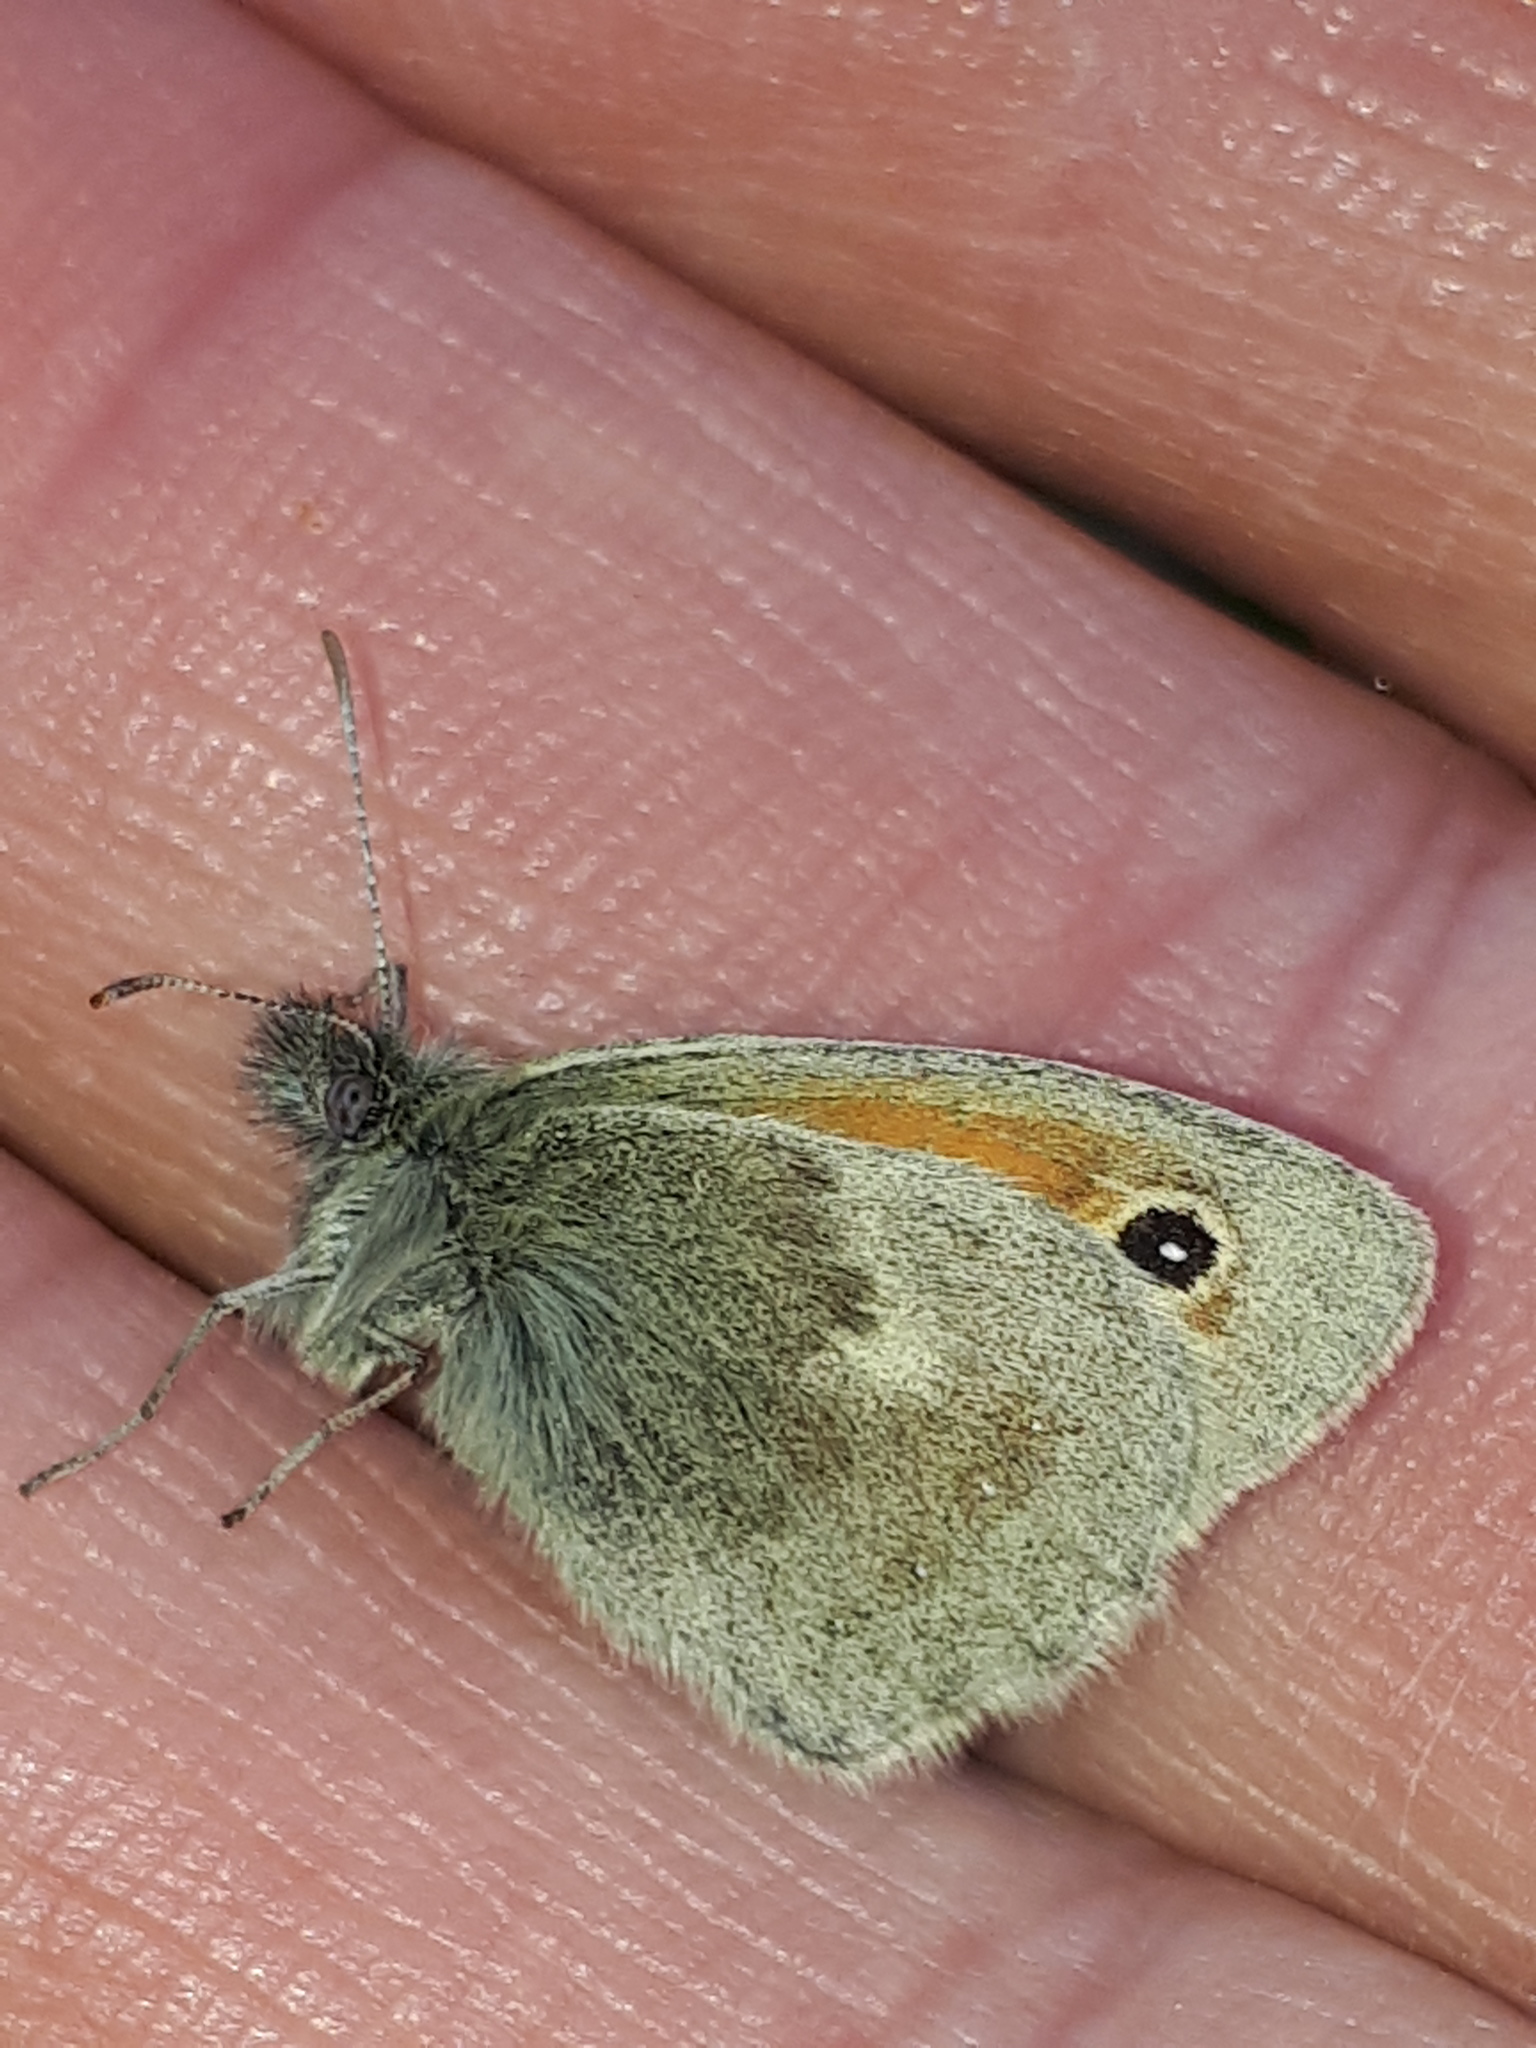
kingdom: Animalia
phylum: Arthropoda
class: Insecta
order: Lepidoptera
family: Nymphalidae
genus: Coenonympha
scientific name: Coenonympha pamphilus
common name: Small heath
